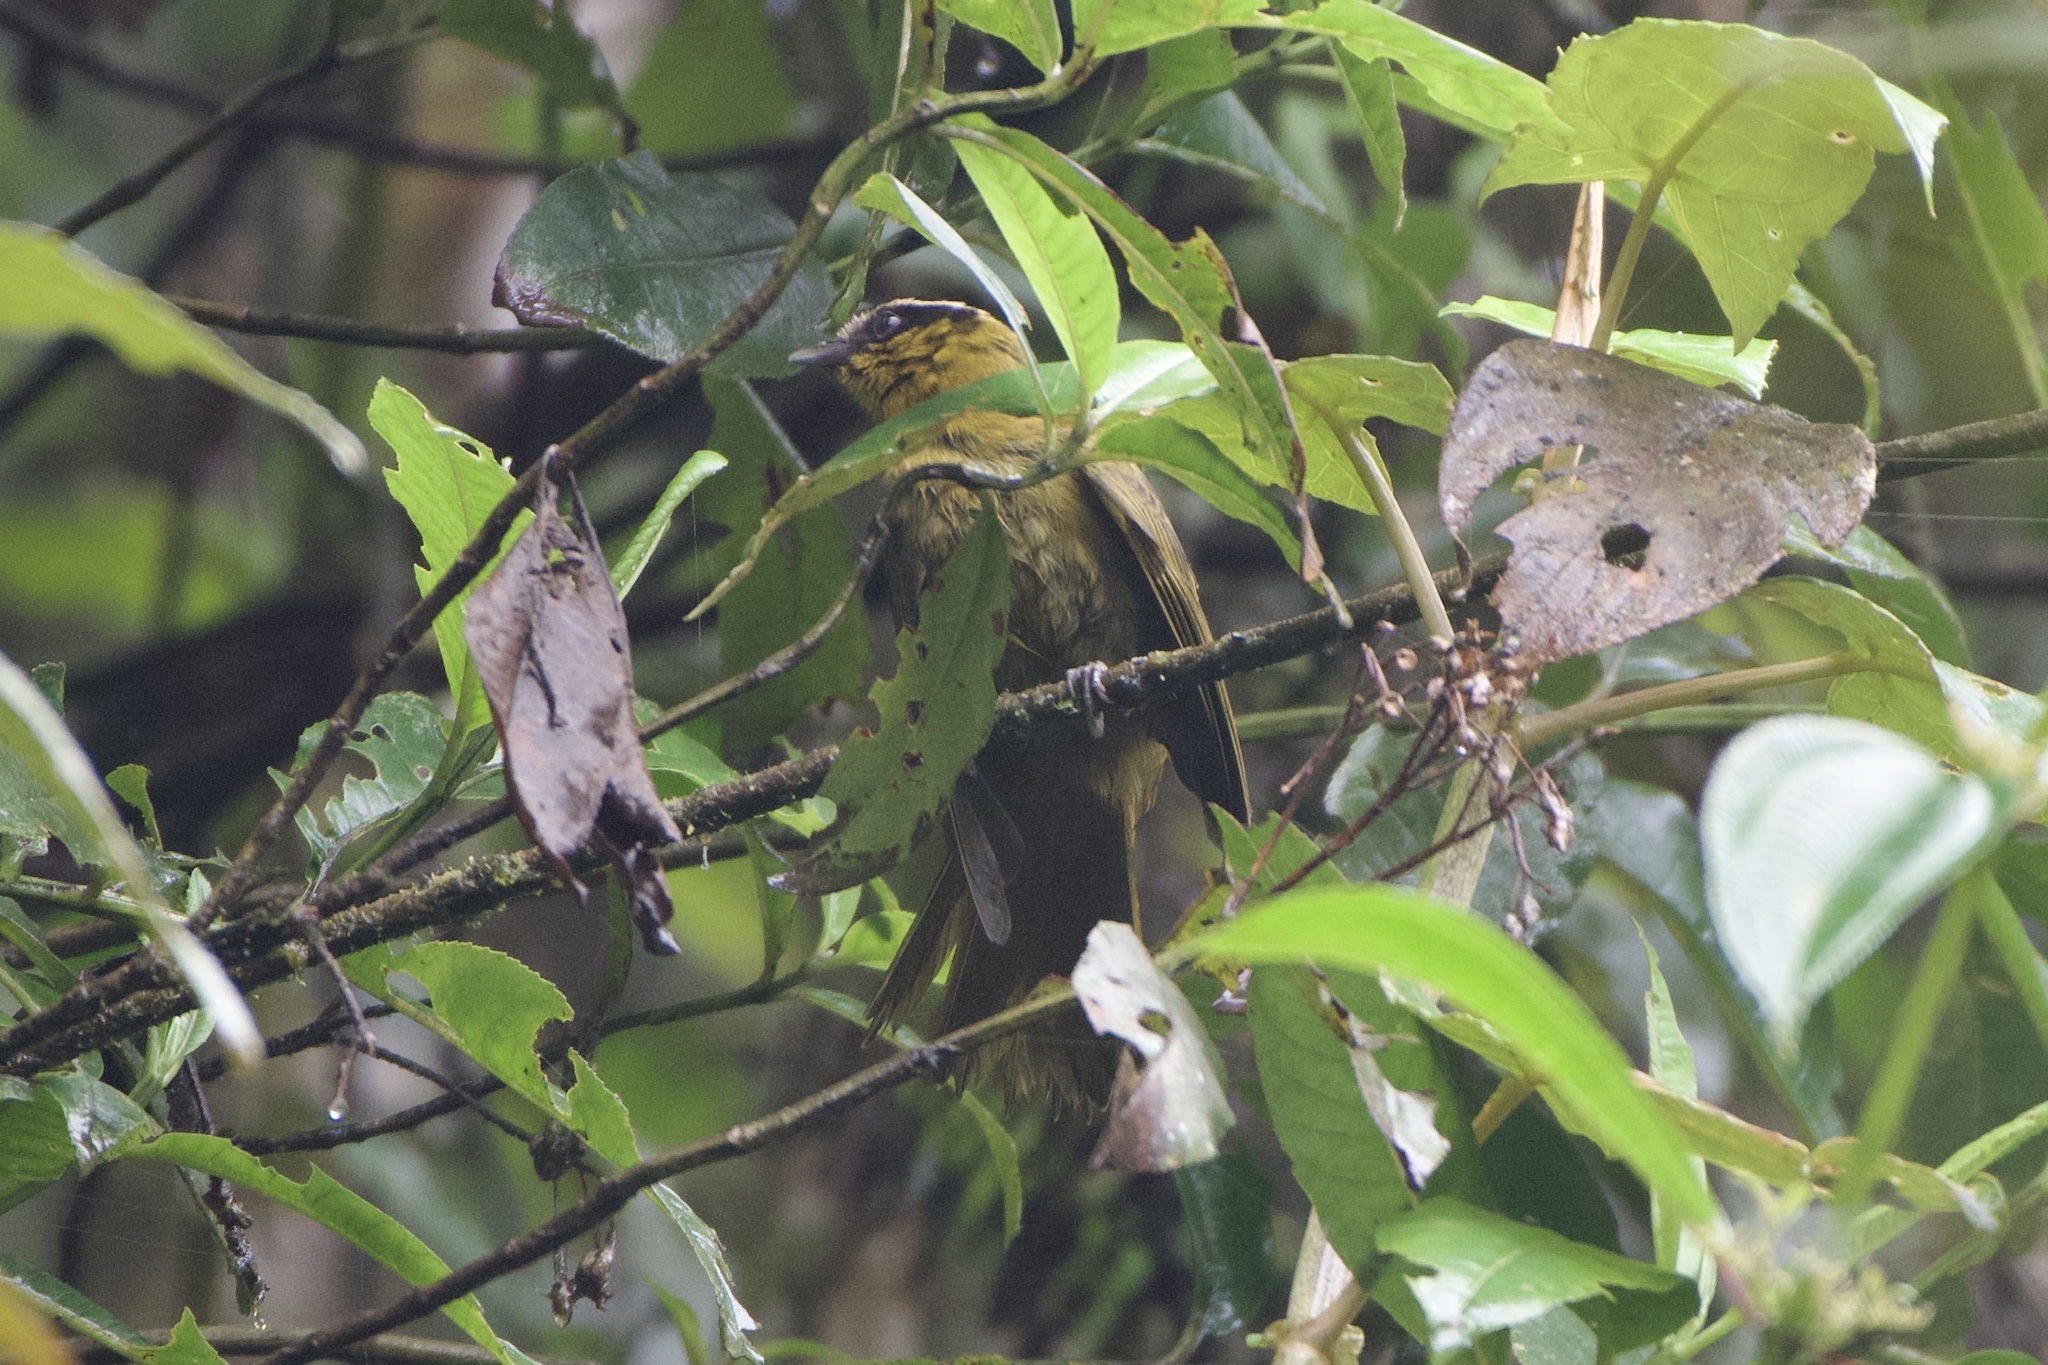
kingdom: Animalia
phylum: Chordata
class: Aves
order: Passeriformes
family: Thraupidae
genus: Kleinothraupis
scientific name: Kleinothraupis atropileus
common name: Black-capped hemispingus
